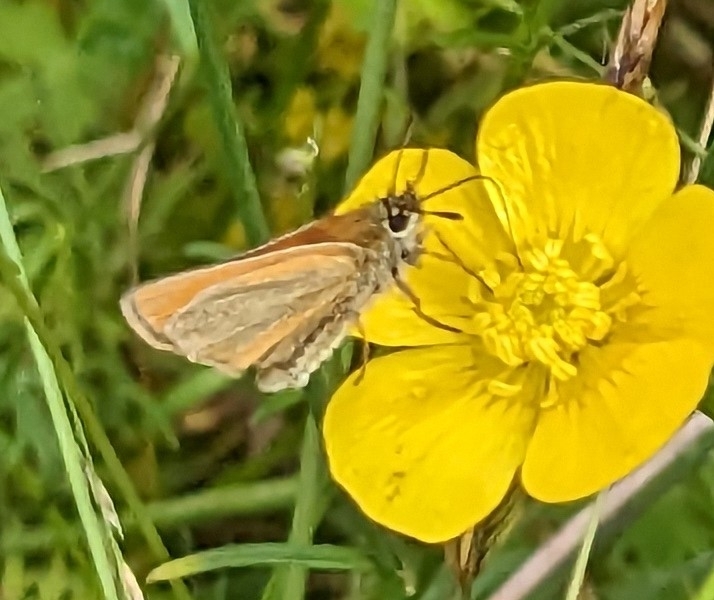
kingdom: Animalia
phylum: Arthropoda
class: Insecta
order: Lepidoptera
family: Hesperiidae
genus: Thymelicus
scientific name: Thymelicus lineola
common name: Essex skipper
